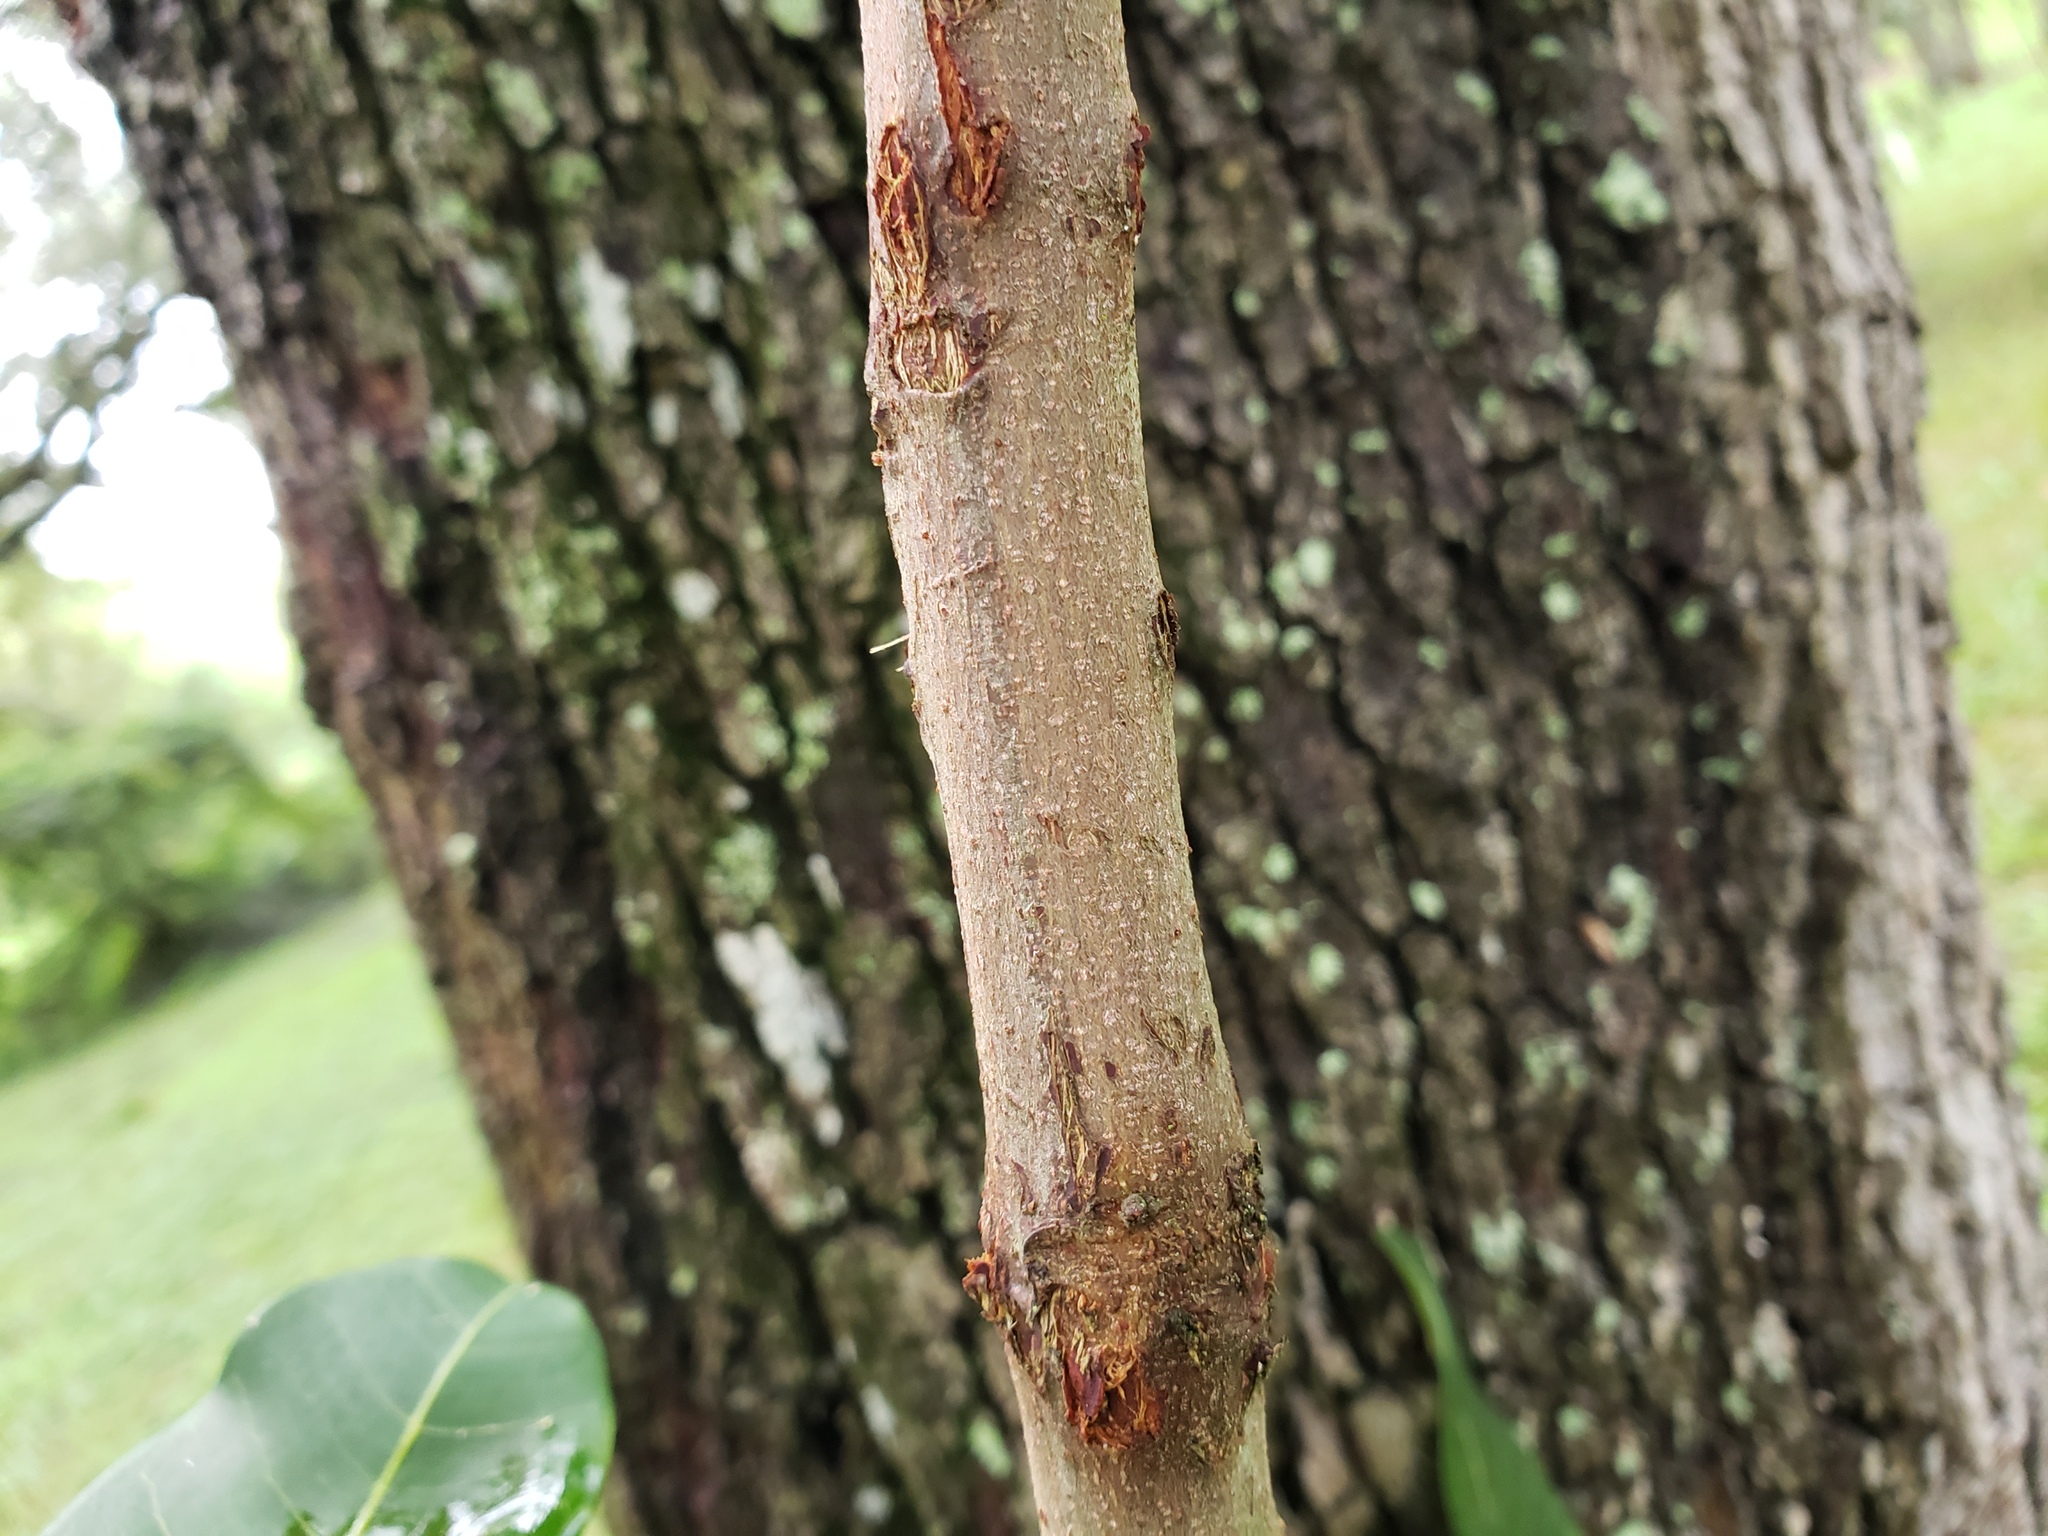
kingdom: Plantae
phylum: Tracheophyta
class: Magnoliopsida
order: Sapindales
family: Sapindaceae
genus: Cupaniopsis
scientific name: Cupaniopsis anacardioides
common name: Carrotwood
